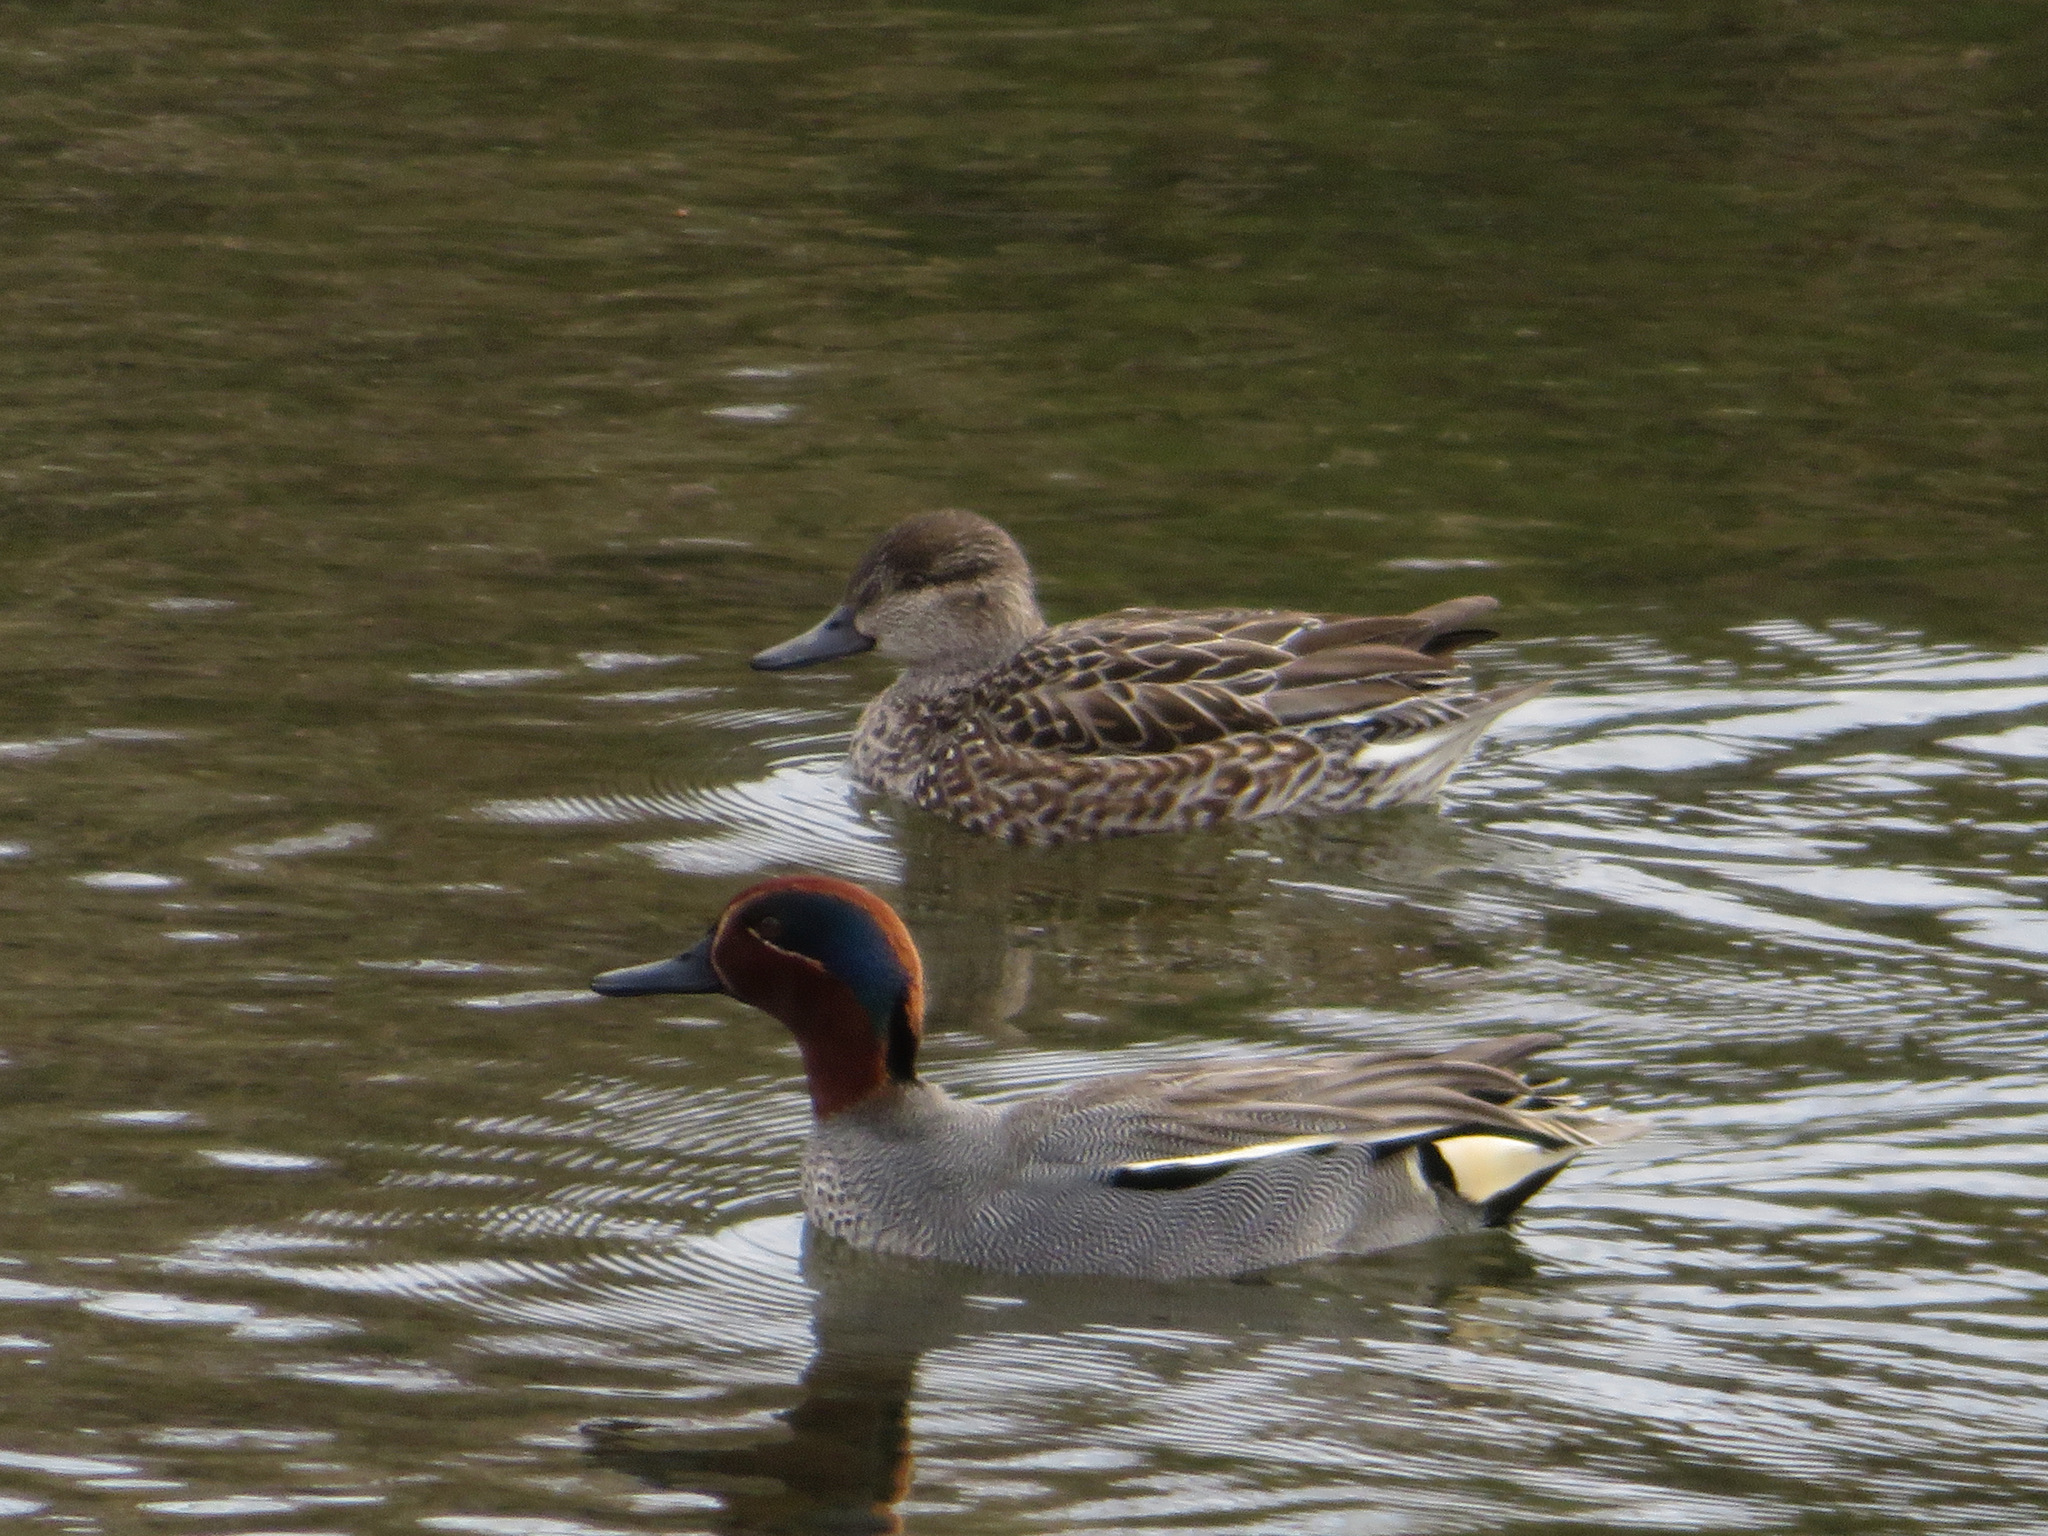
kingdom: Animalia
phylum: Chordata
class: Aves
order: Anseriformes
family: Anatidae
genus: Anas
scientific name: Anas crecca
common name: Eurasian teal
